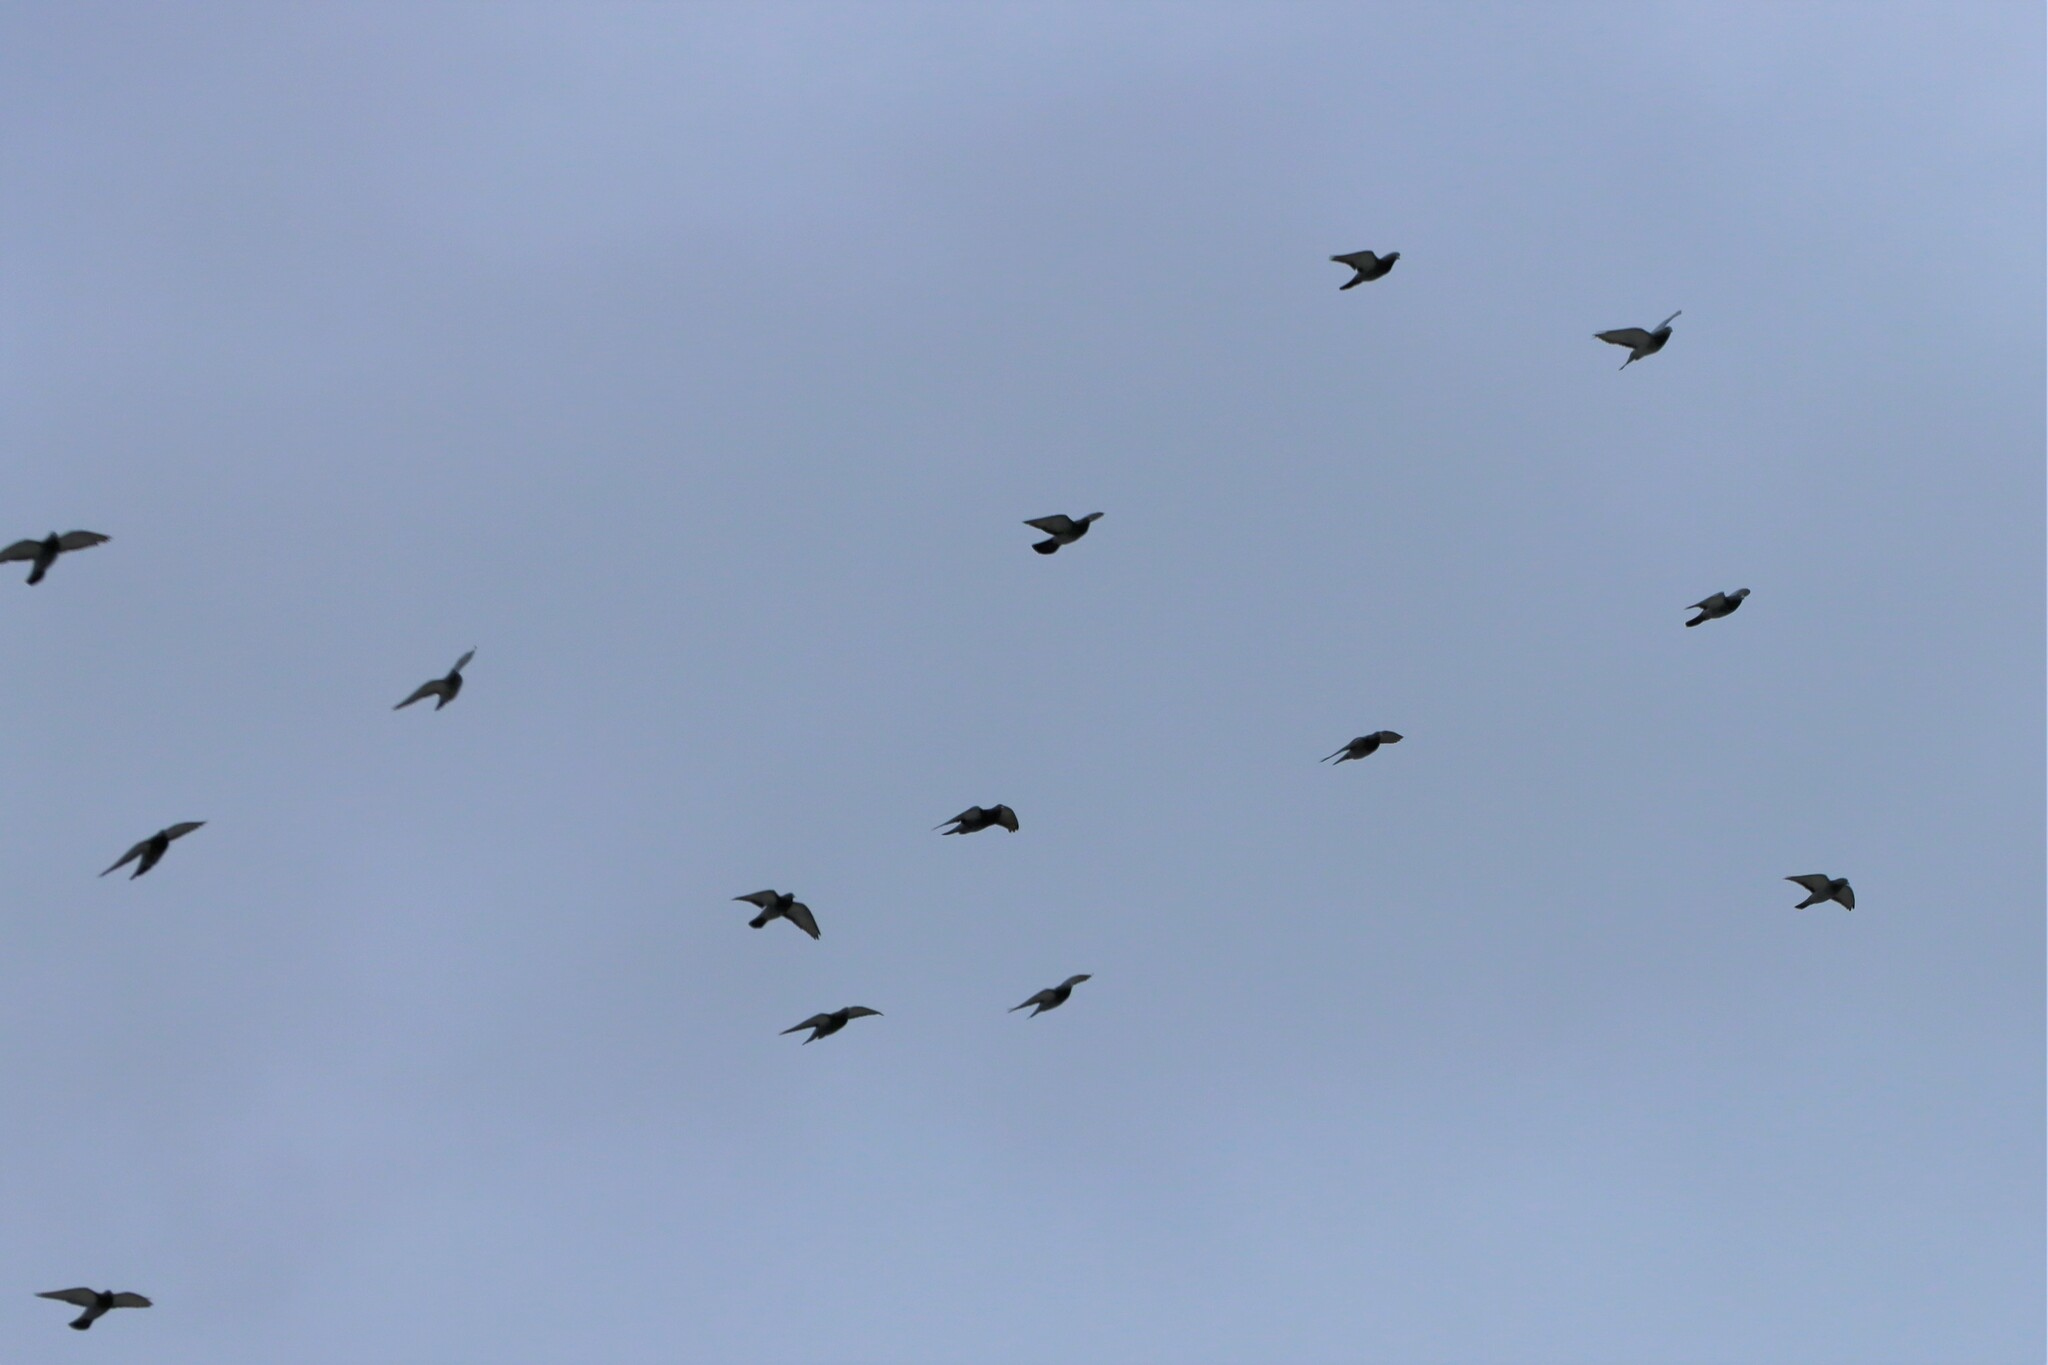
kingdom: Animalia
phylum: Chordata
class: Aves
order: Columbiformes
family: Columbidae
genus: Columba
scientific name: Columba livia
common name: Rock pigeon
